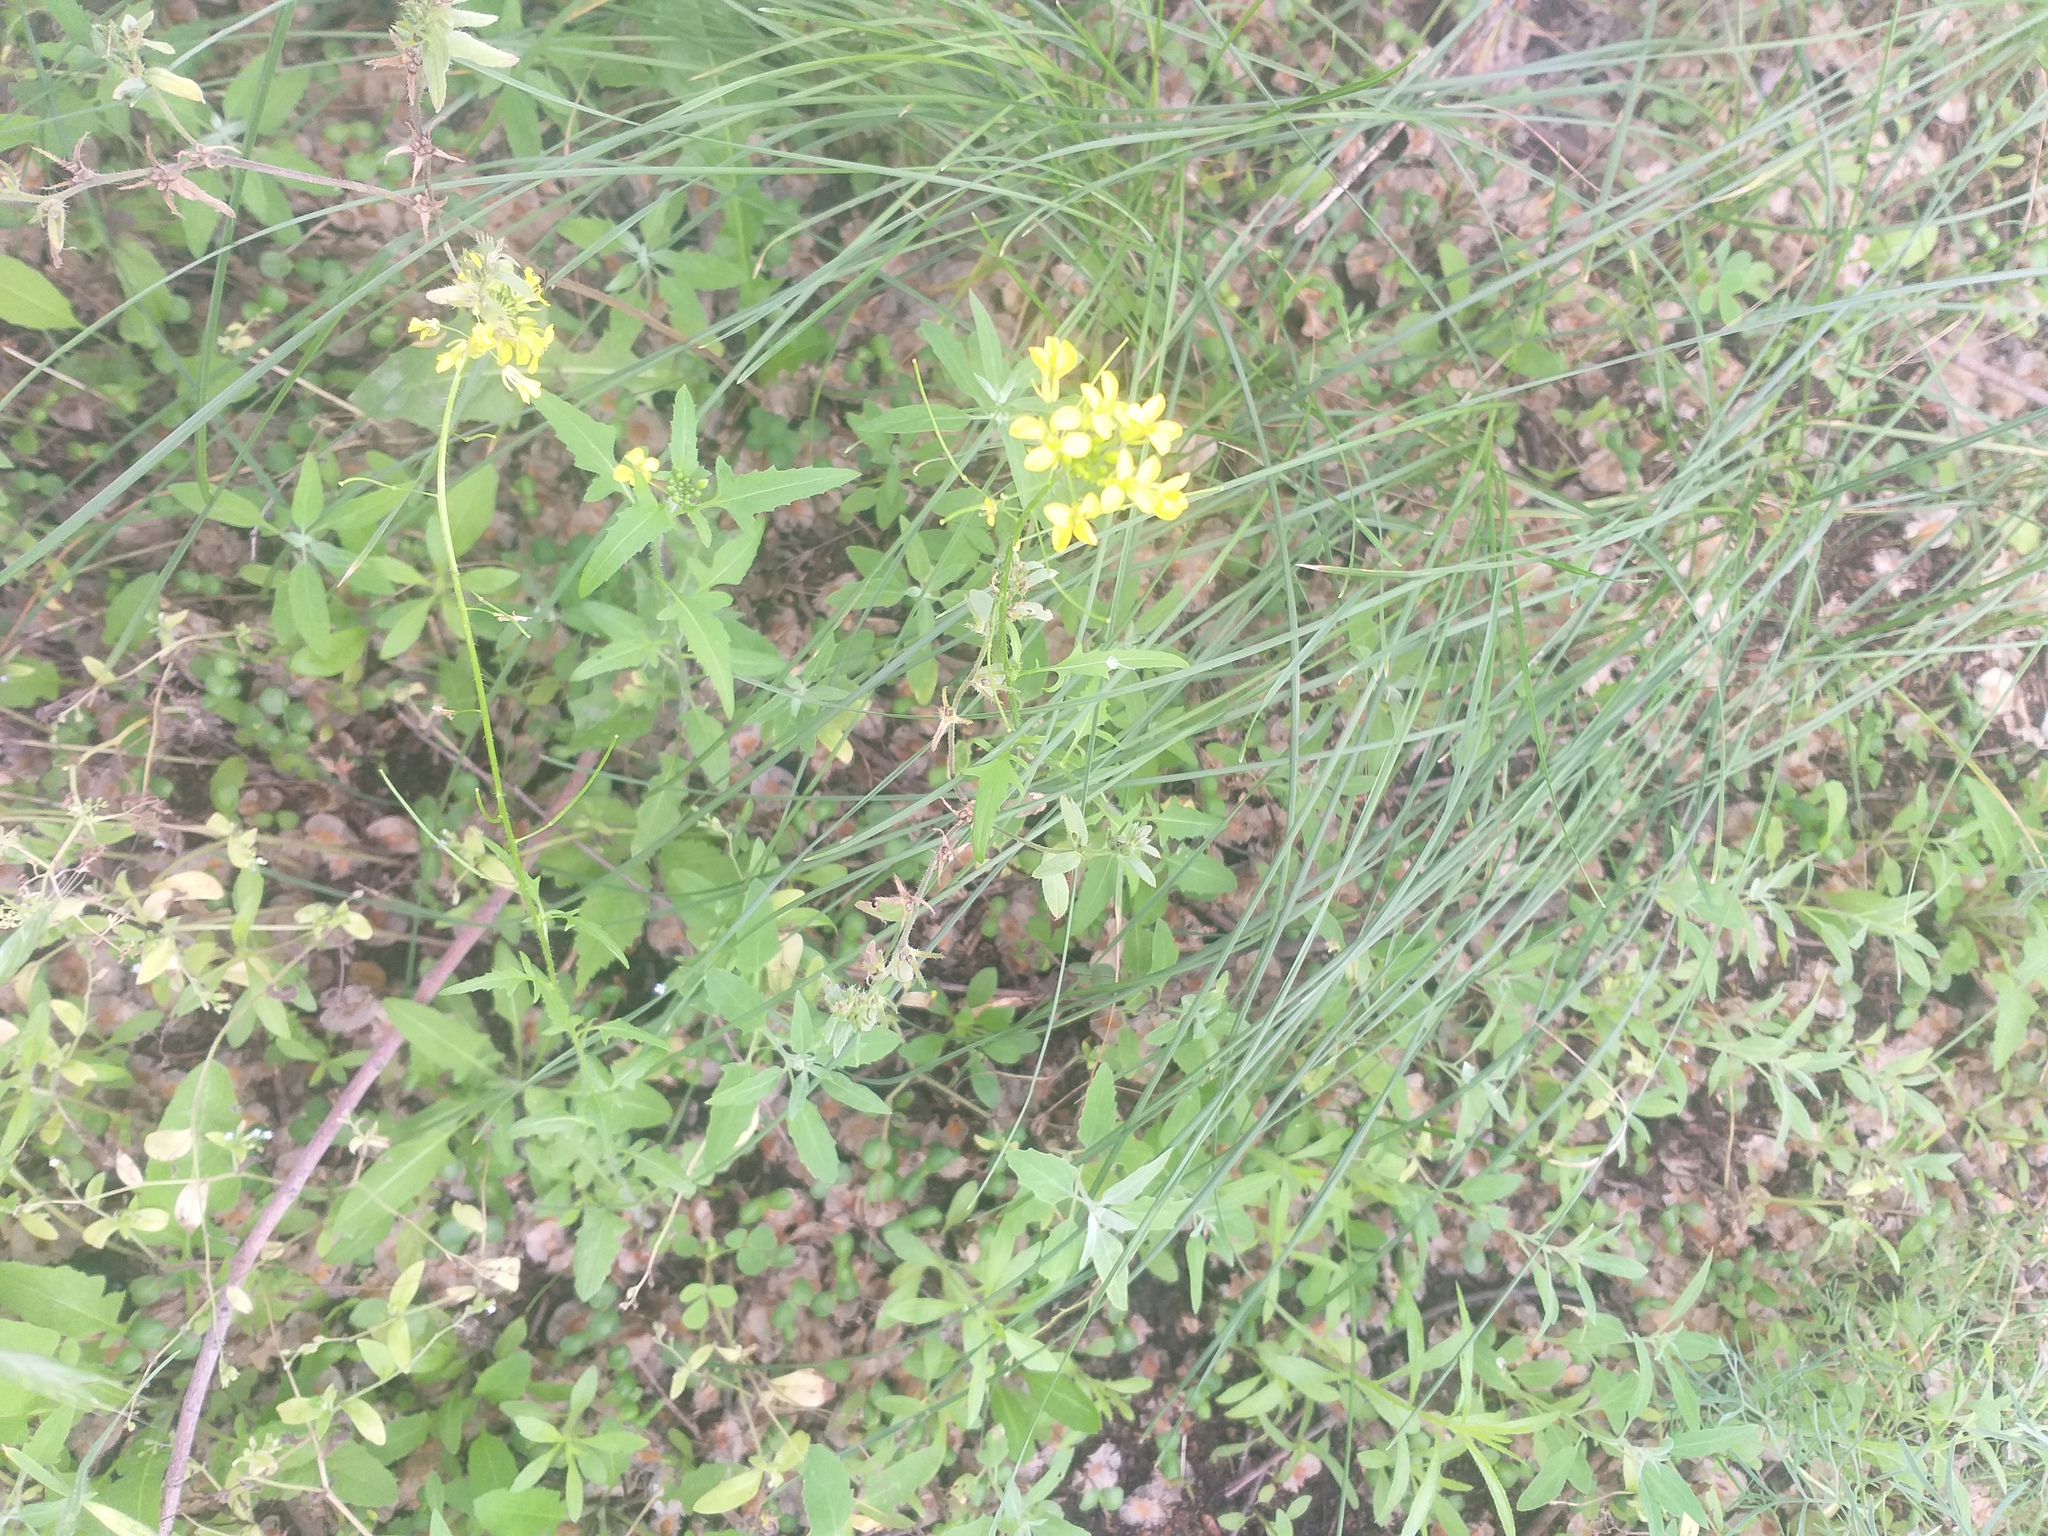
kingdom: Plantae
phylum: Tracheophyta
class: Magnoliopsida
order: Brassicales
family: Brassicaceae
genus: Sisymbrium
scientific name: Sisymbrium loeselii
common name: False london-rocket
